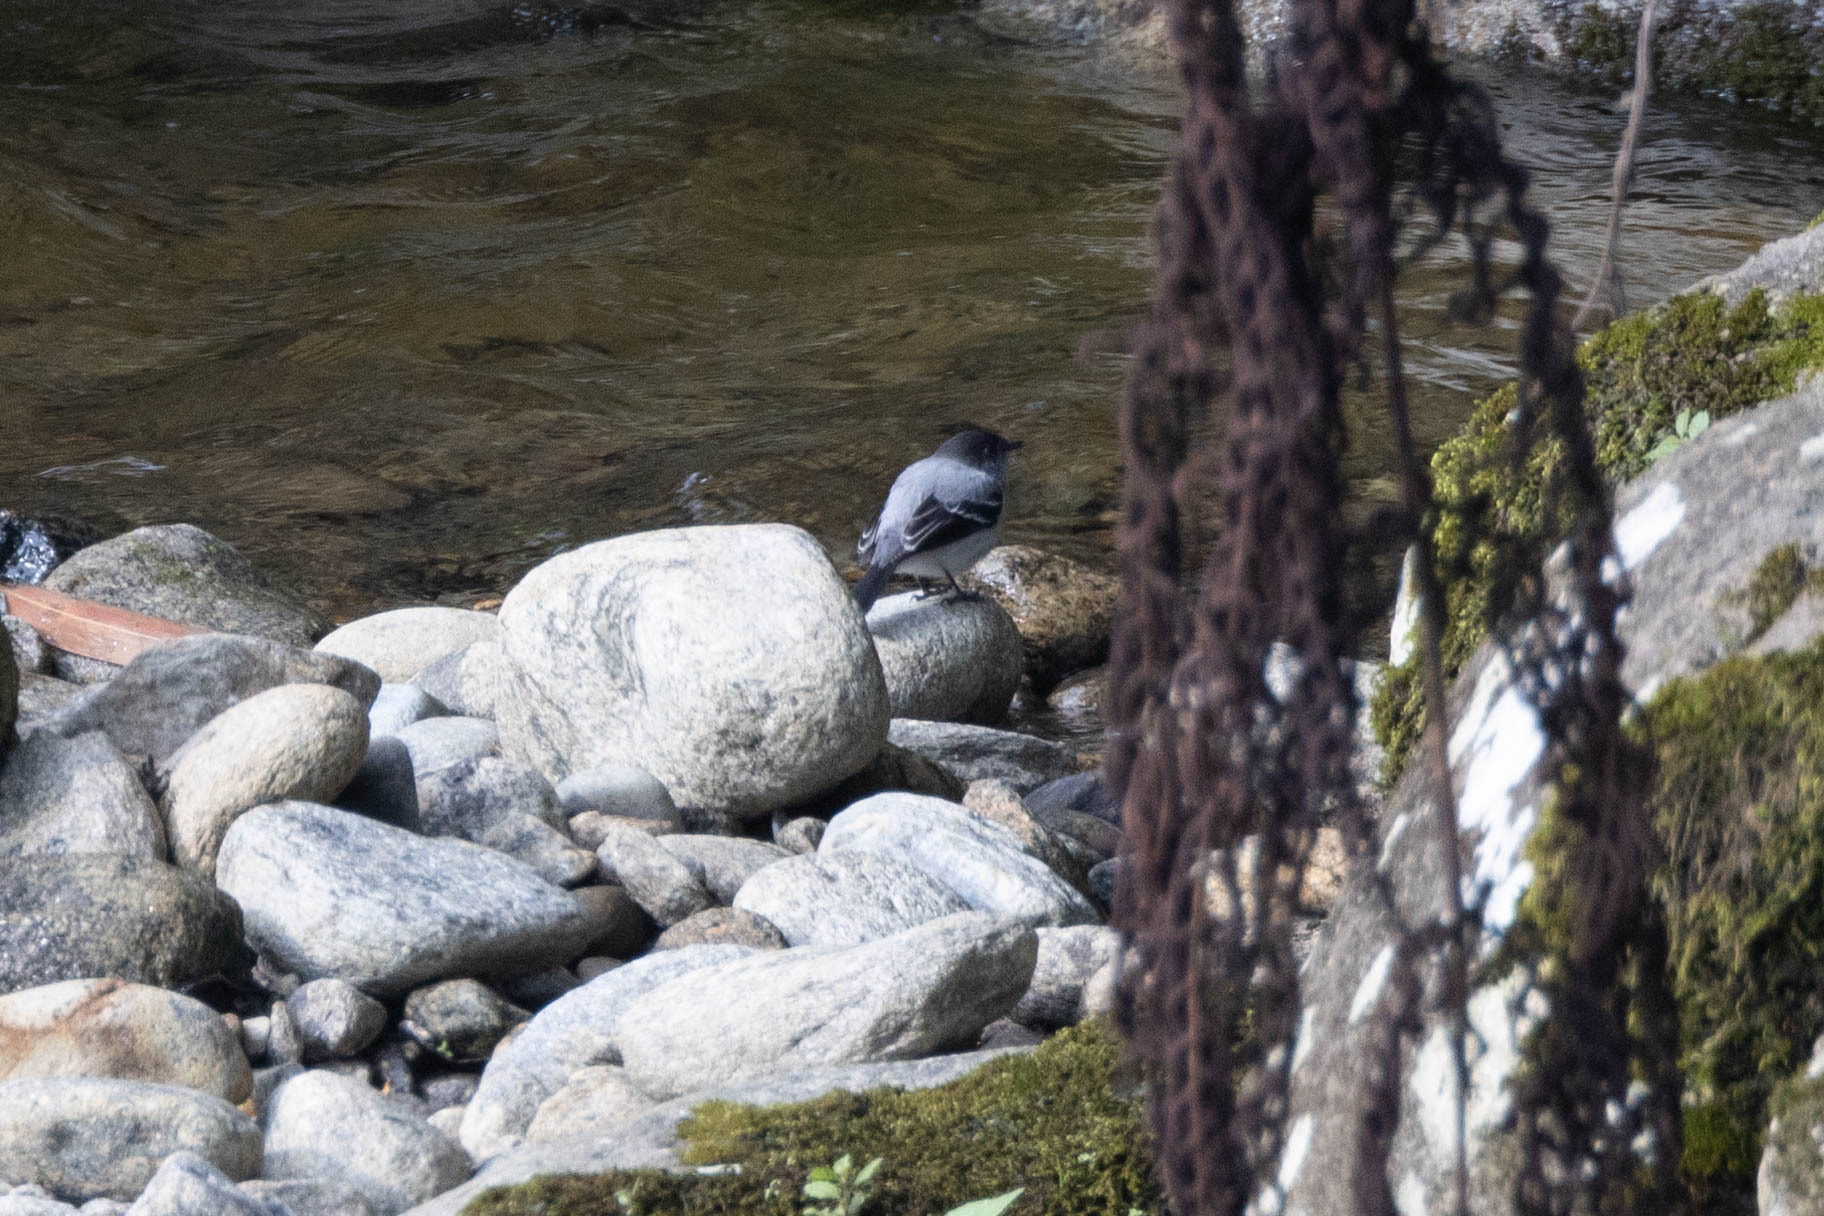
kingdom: Animalia
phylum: Chordata
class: Aves
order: Passeriformes
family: Tyrannidae
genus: Serpophaga
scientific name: Serpophaga cinerea
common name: Torrent tyrannulet
